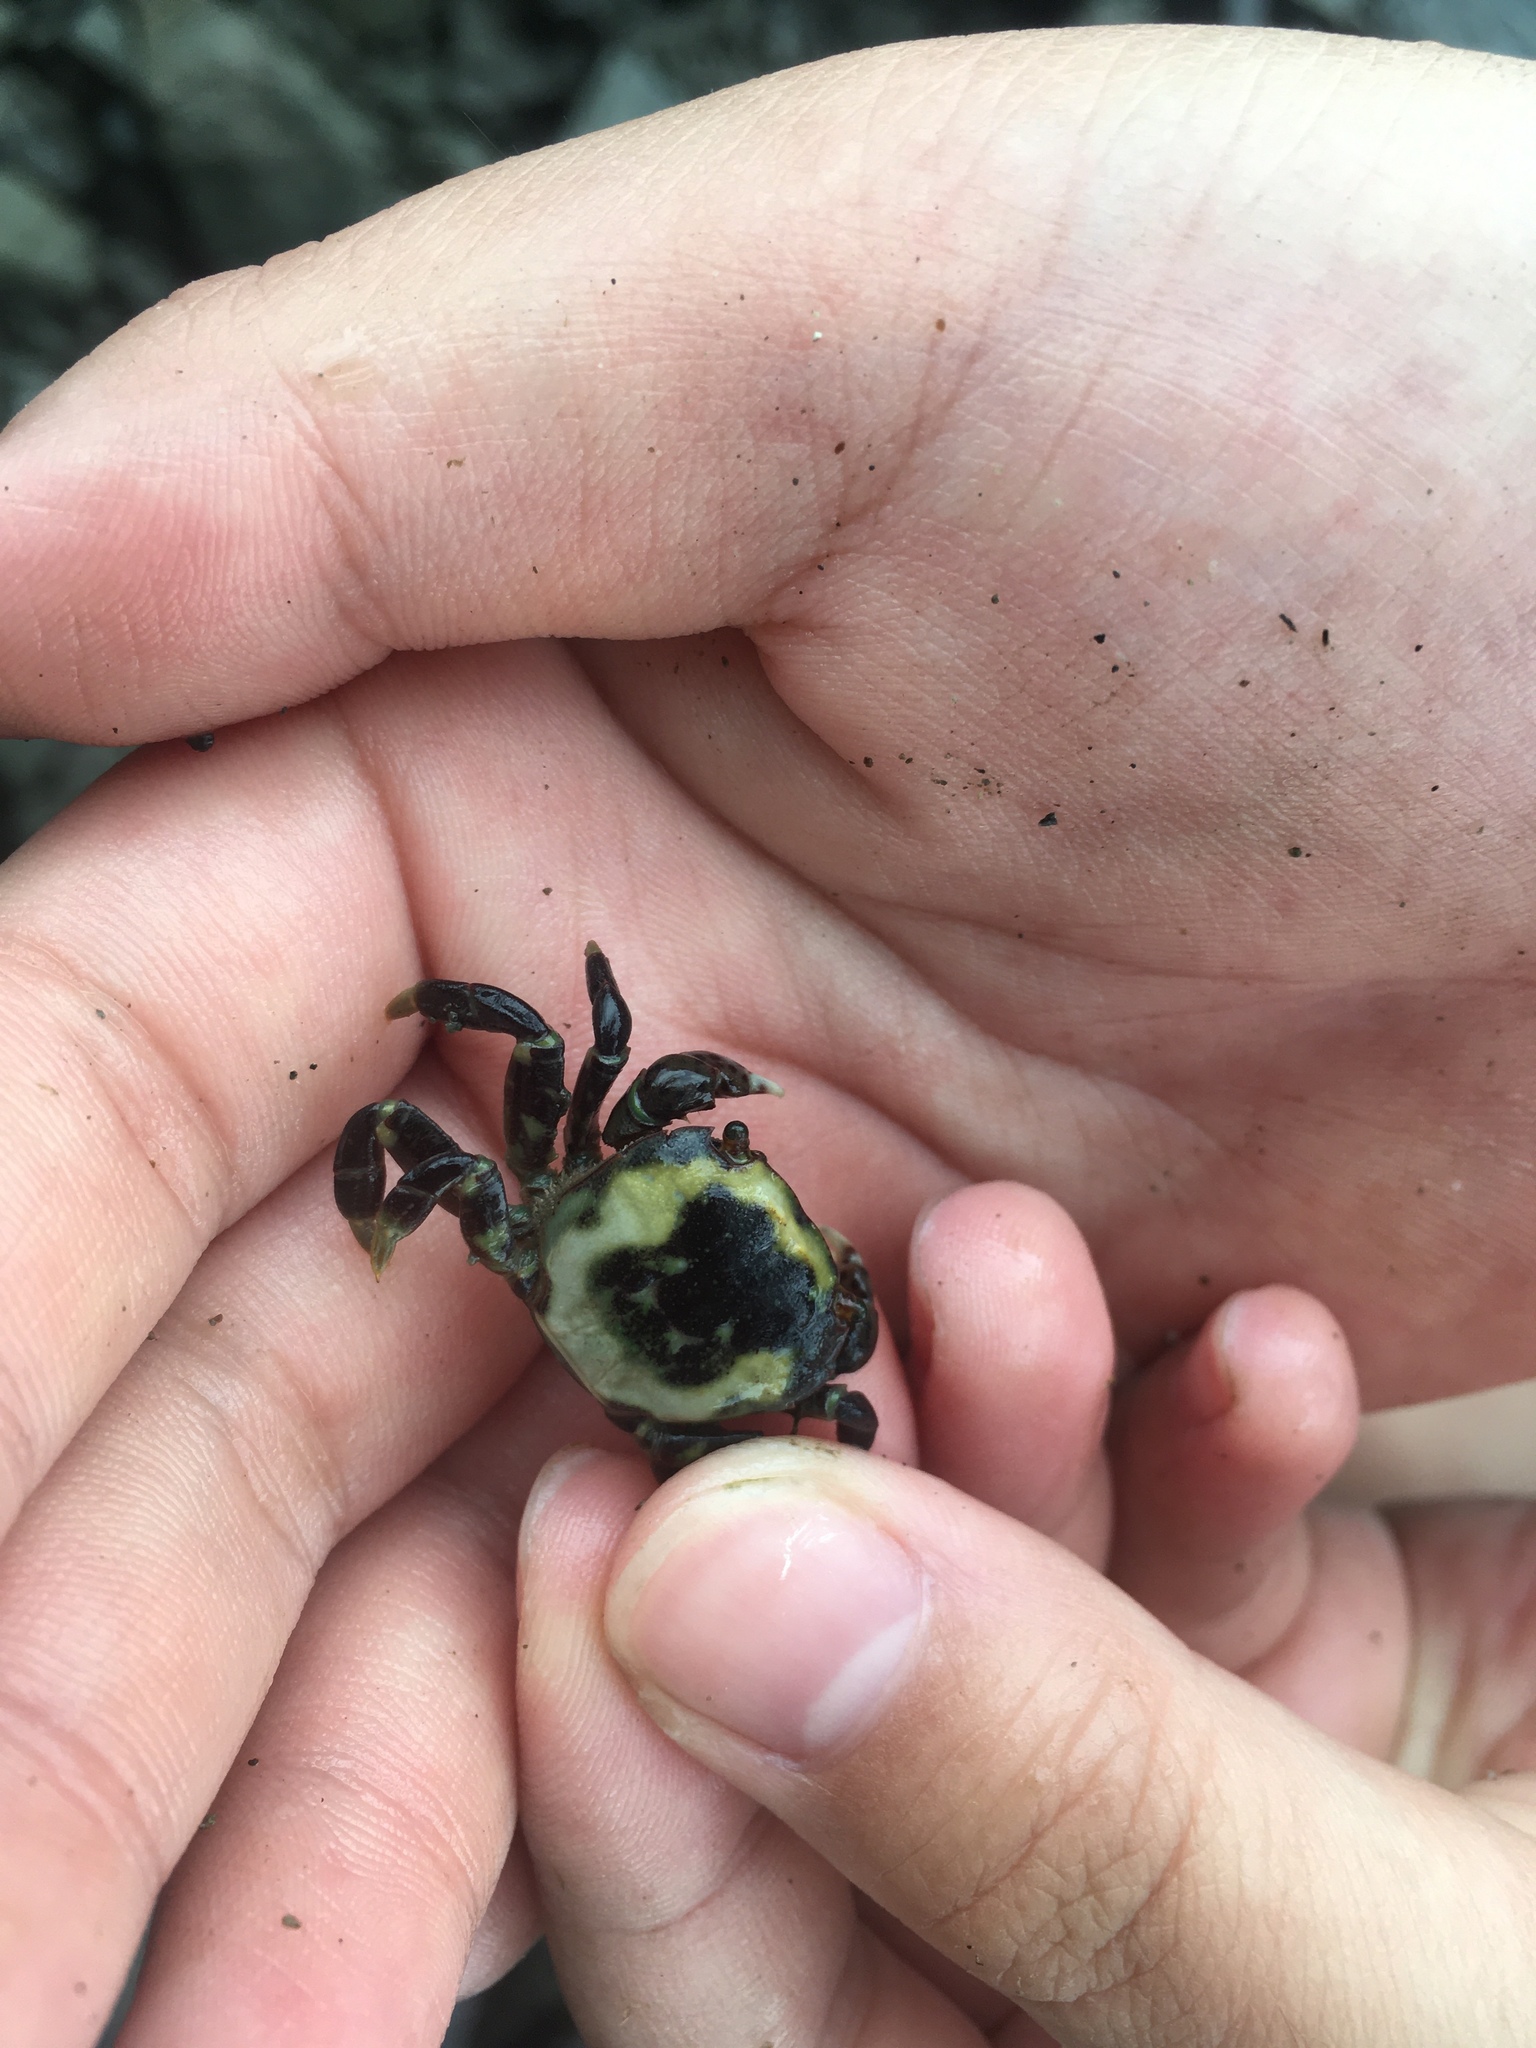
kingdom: Animalia
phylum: Arthropoda
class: Malacostraca
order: Decapoda
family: Varunidae
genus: Hemigrapsus
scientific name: Hemigrapsus nudus
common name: Purple shore crab
